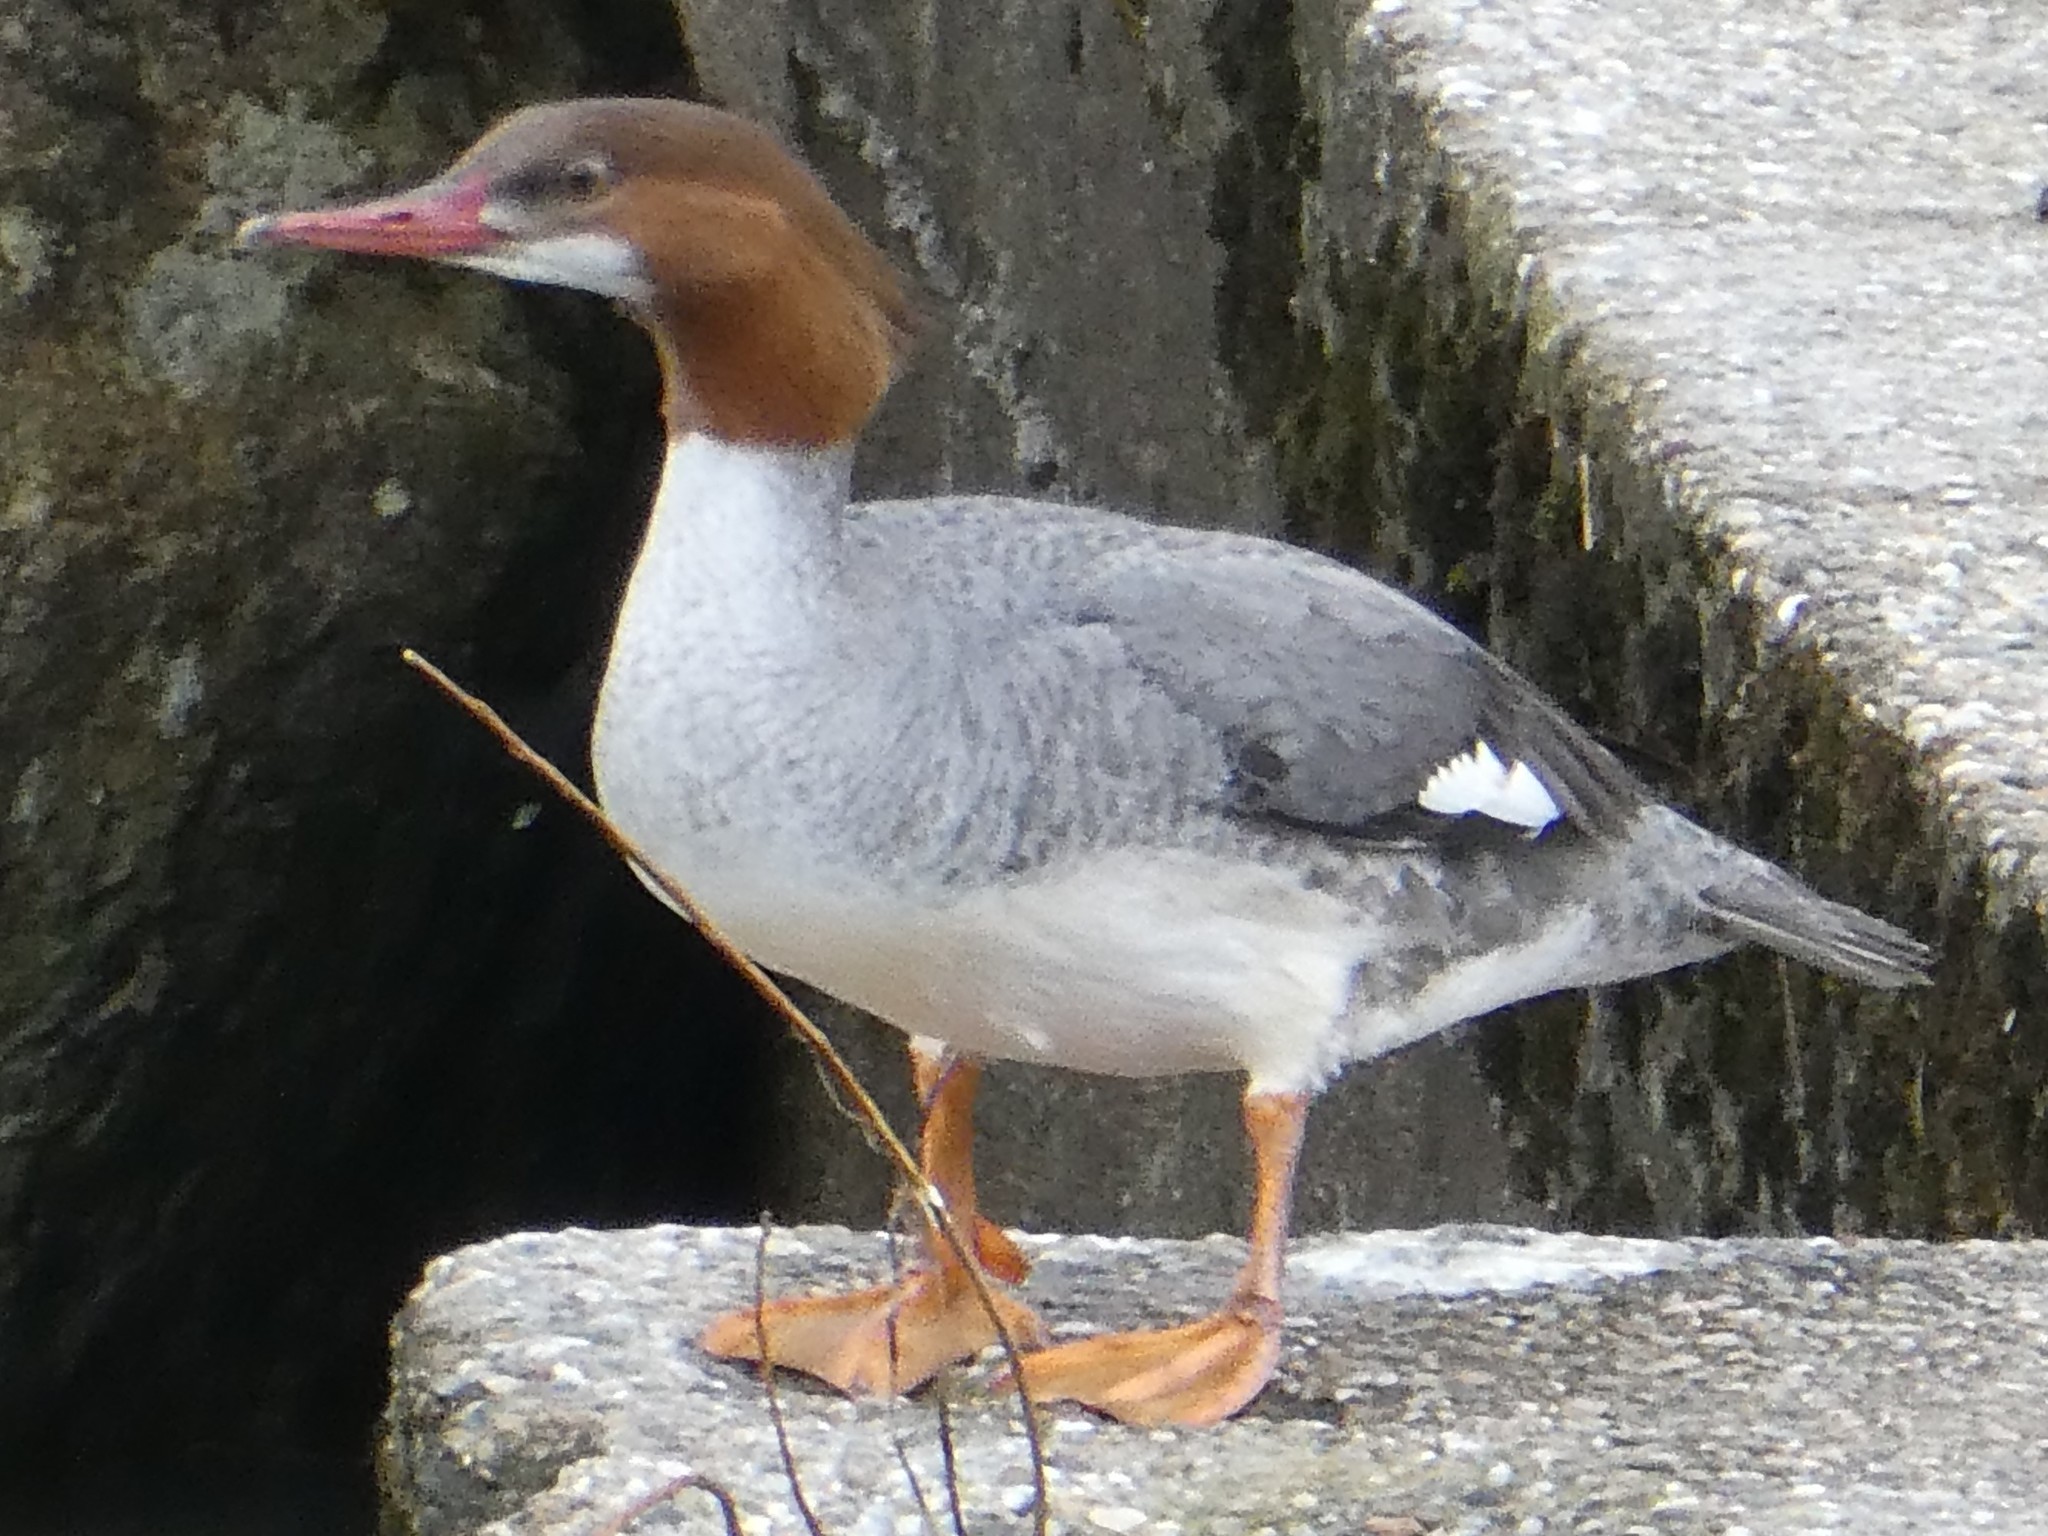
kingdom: Animalia
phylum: Chordata
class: Aves
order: Anseriformes
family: Anatidae
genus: Mergus
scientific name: Mergus merganser
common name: Common merganser
